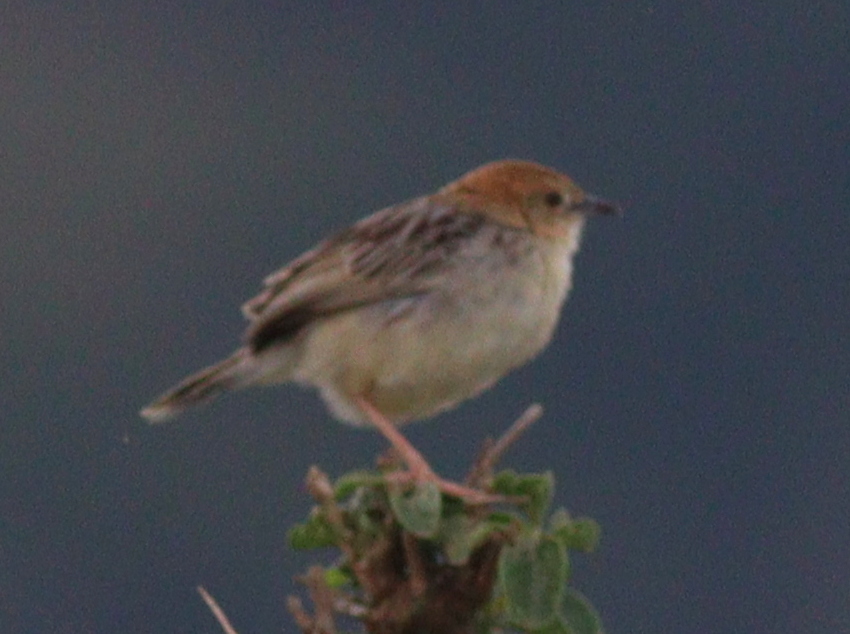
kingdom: Animalia
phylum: Chordata
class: Aves
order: Passeriformes
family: Cisticolidae
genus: Cisticola
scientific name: Cisticola robustus
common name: Stout cisticola
